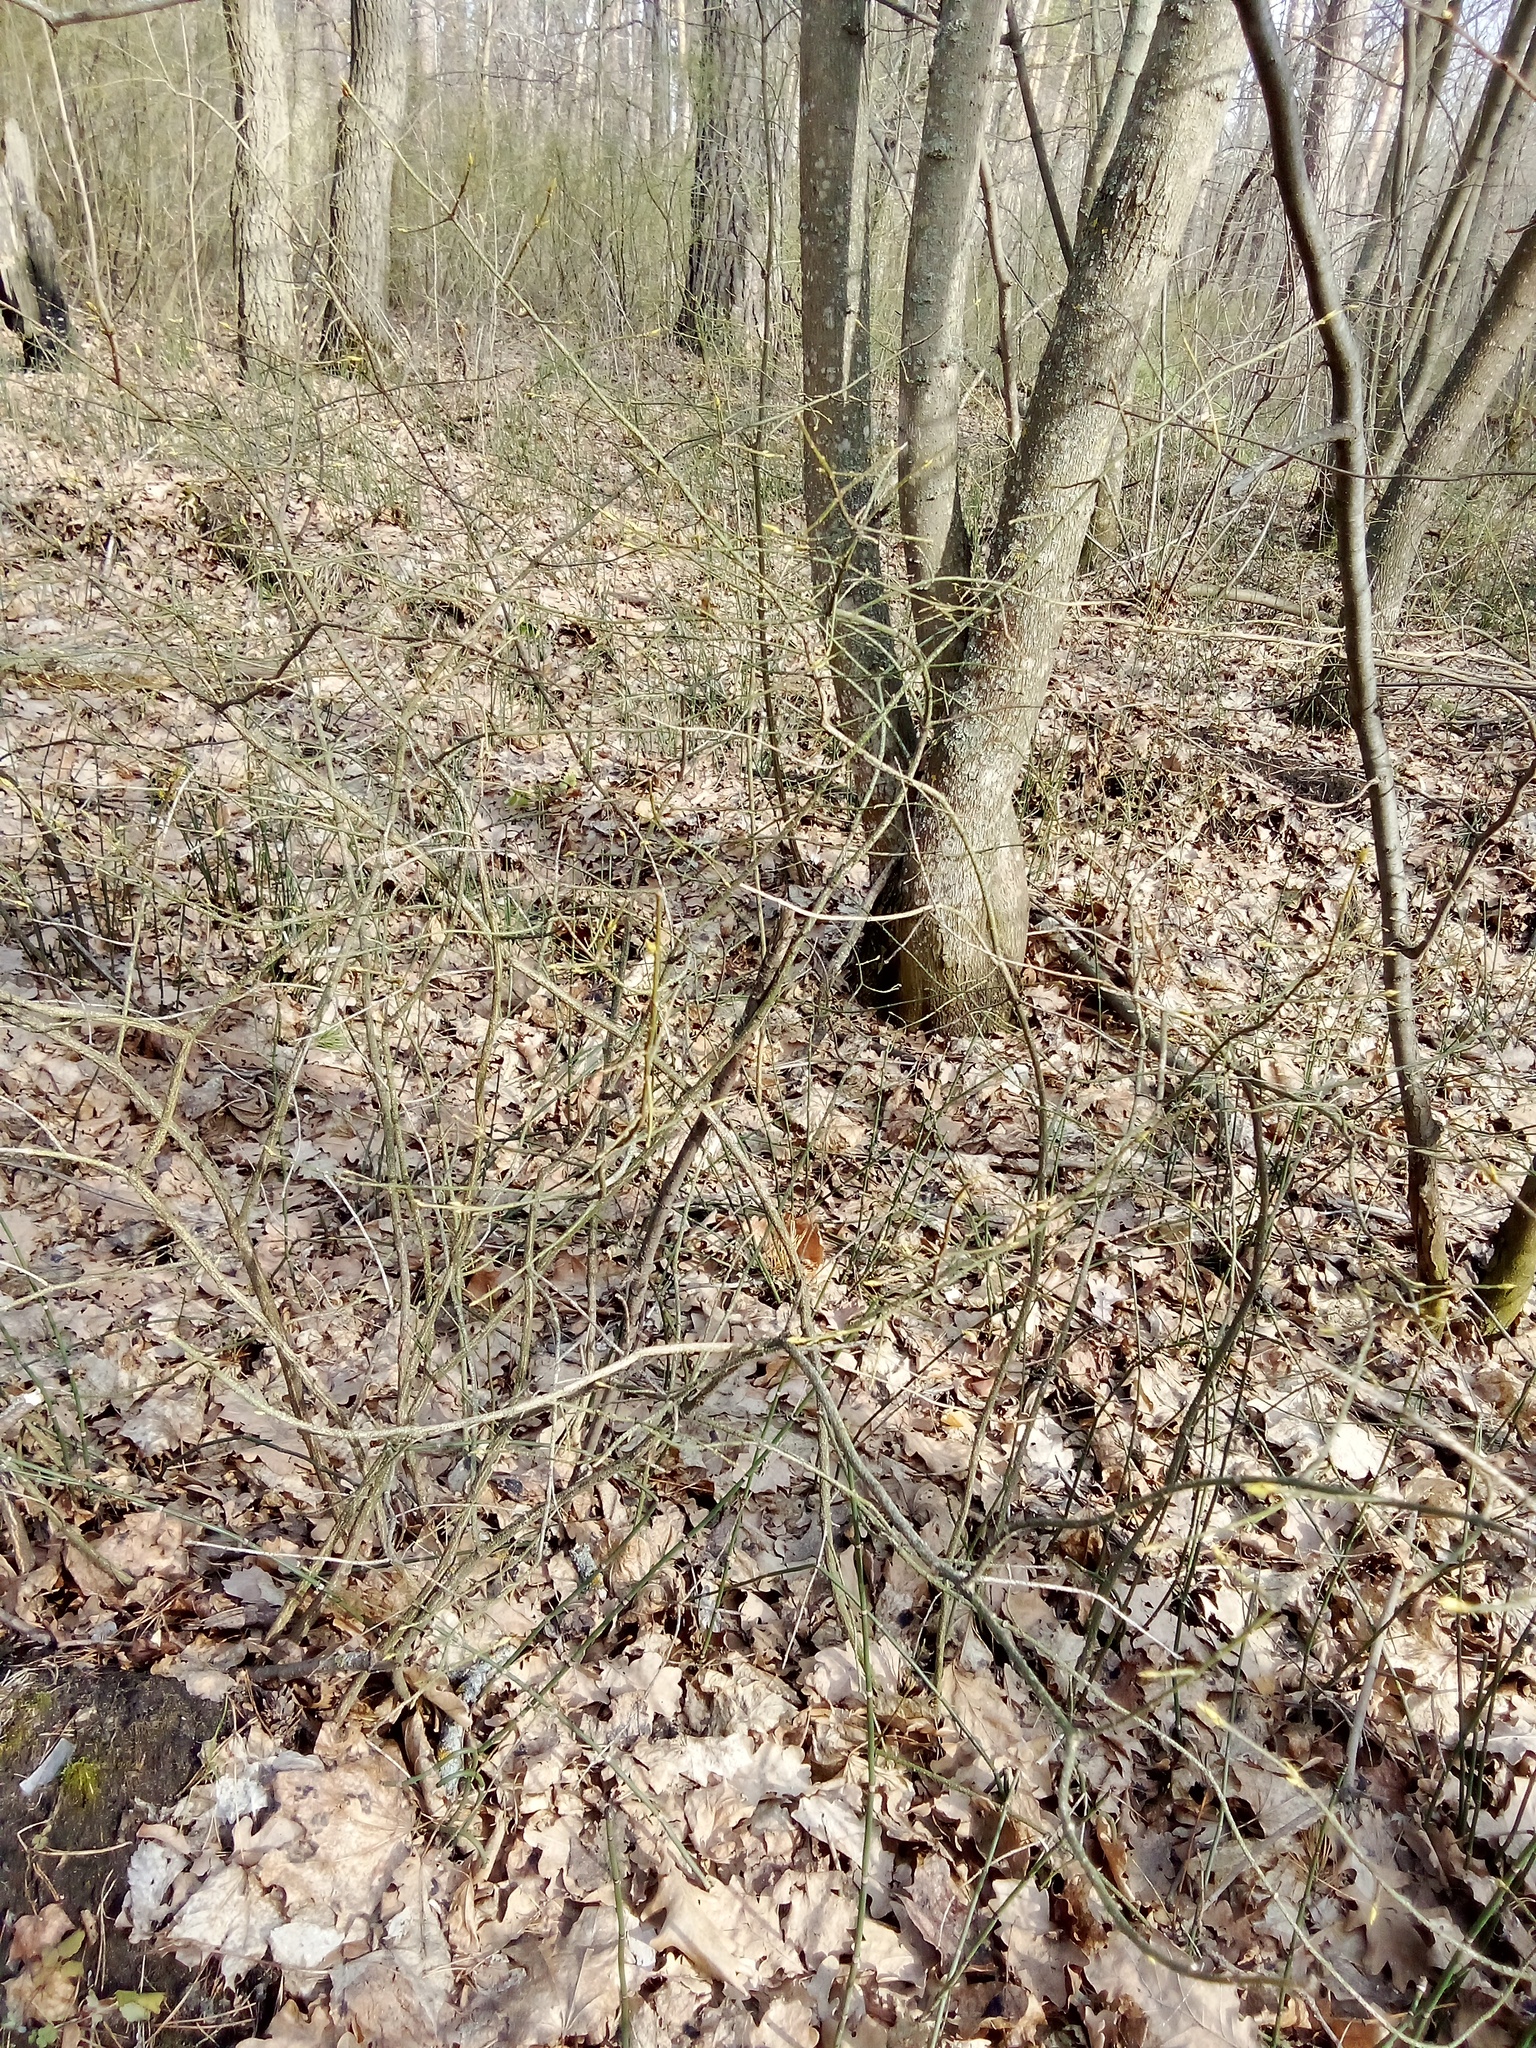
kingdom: Plantae
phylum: Tracheophyta
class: Magnoliopsida
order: Celastrales
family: Celastraceae
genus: Euonymus
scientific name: Euonymus verrucosus
